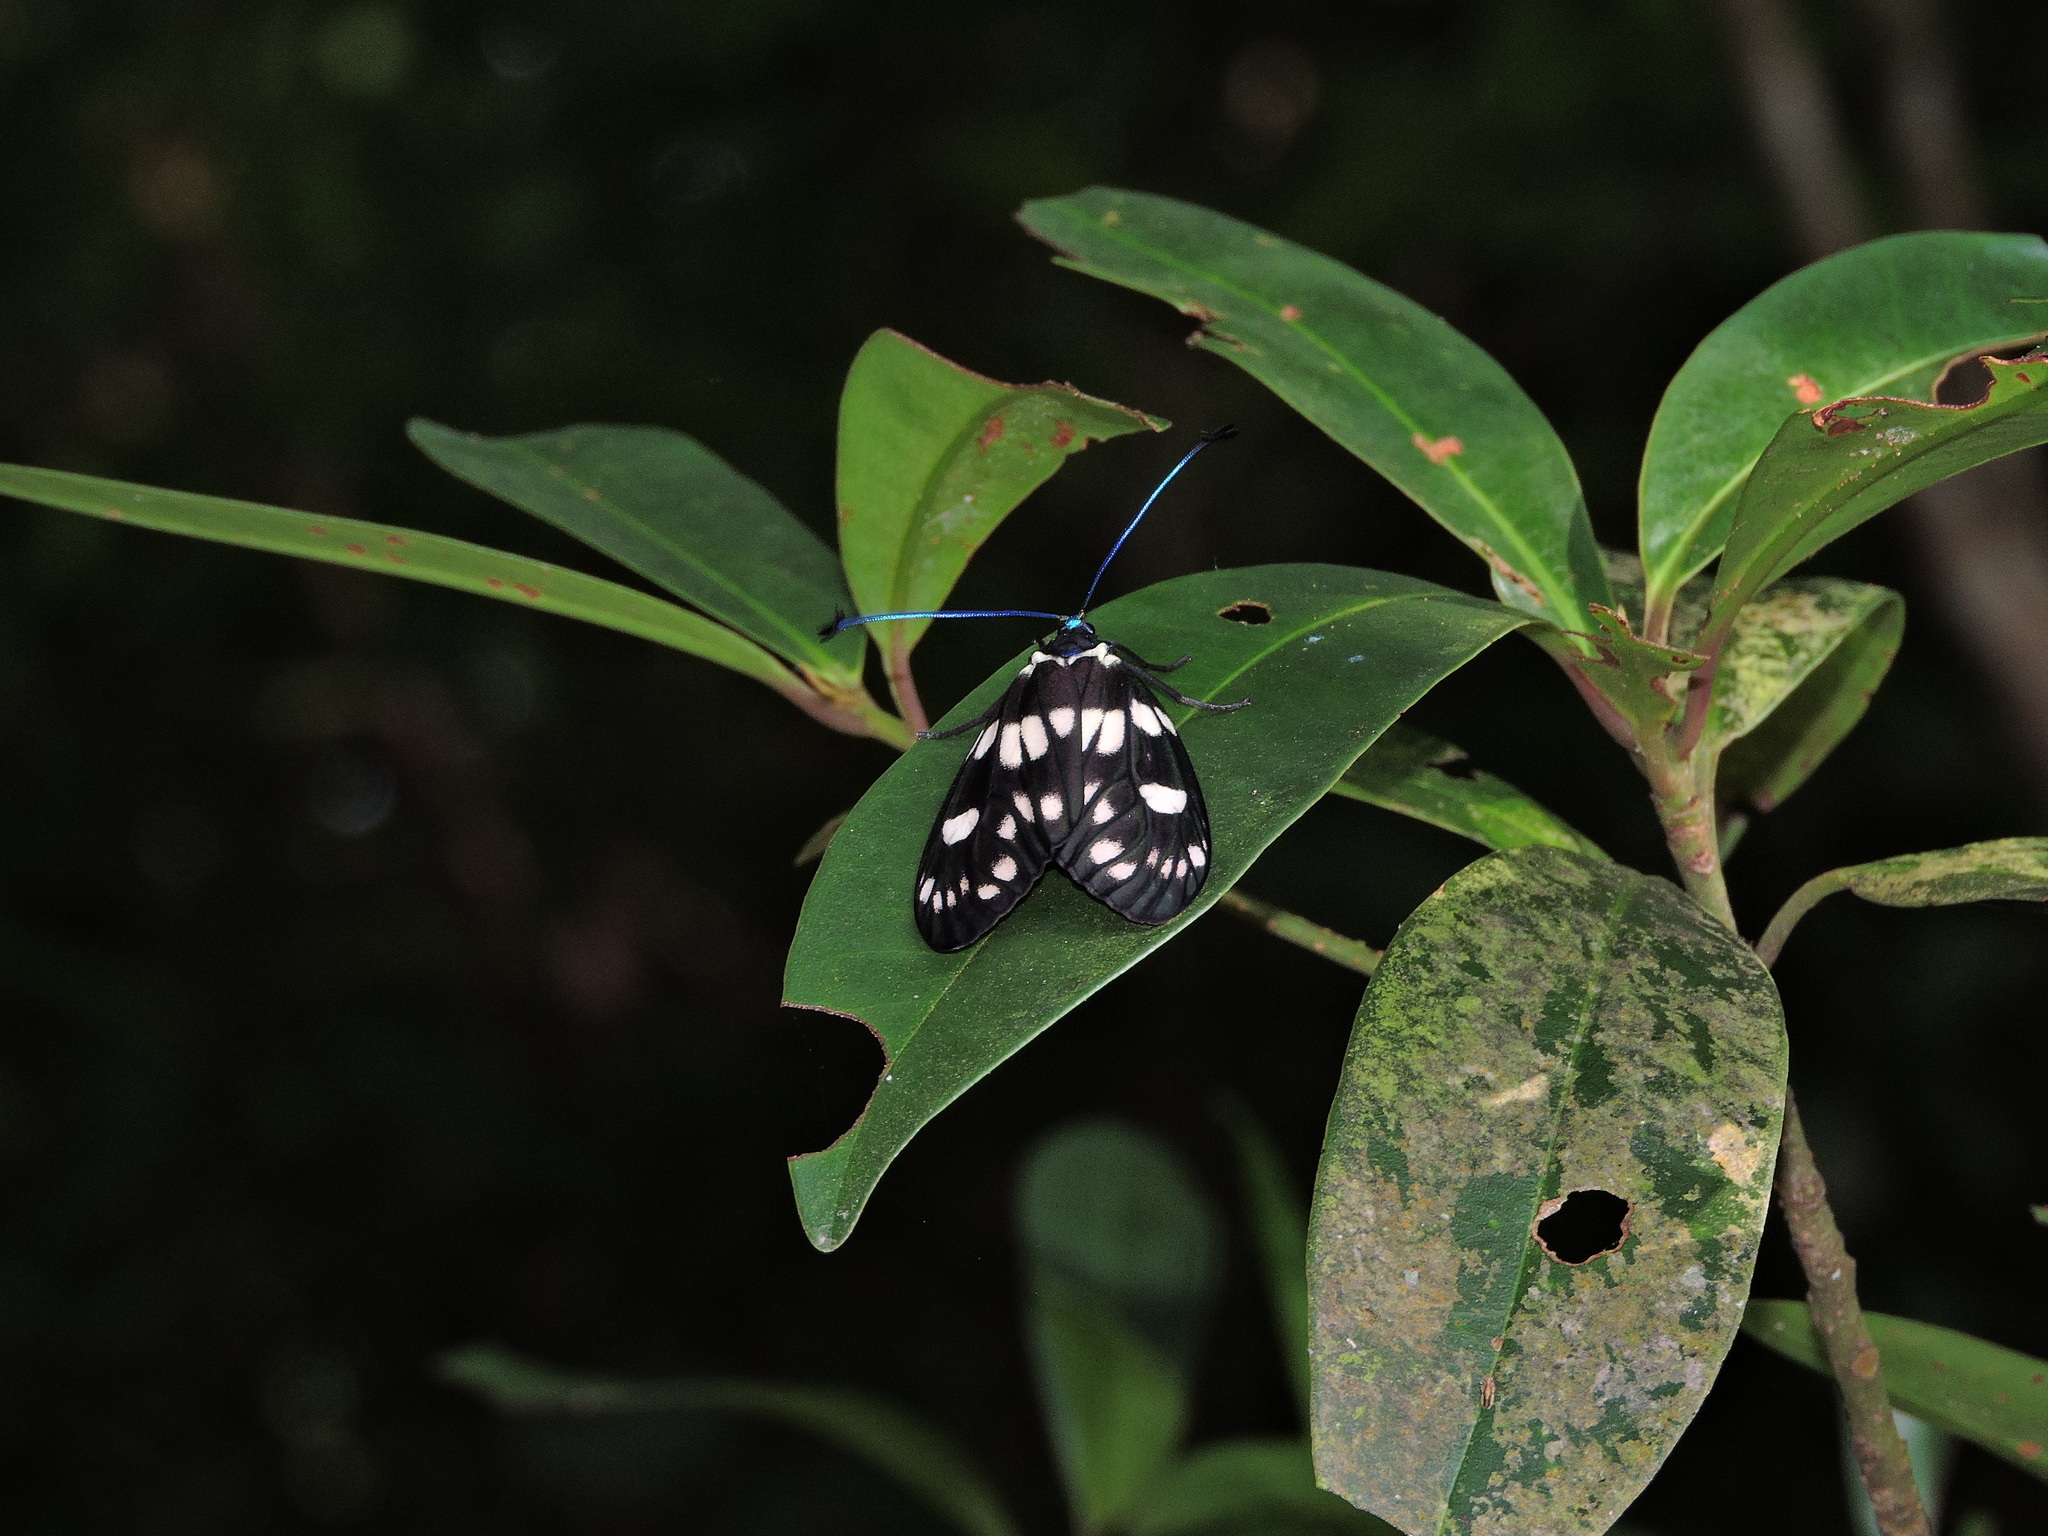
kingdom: Animalia
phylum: Arthropoda
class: Insecta
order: Lepidoptera
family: Zygaenidae
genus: Eterusia
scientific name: Eterusia aedea
